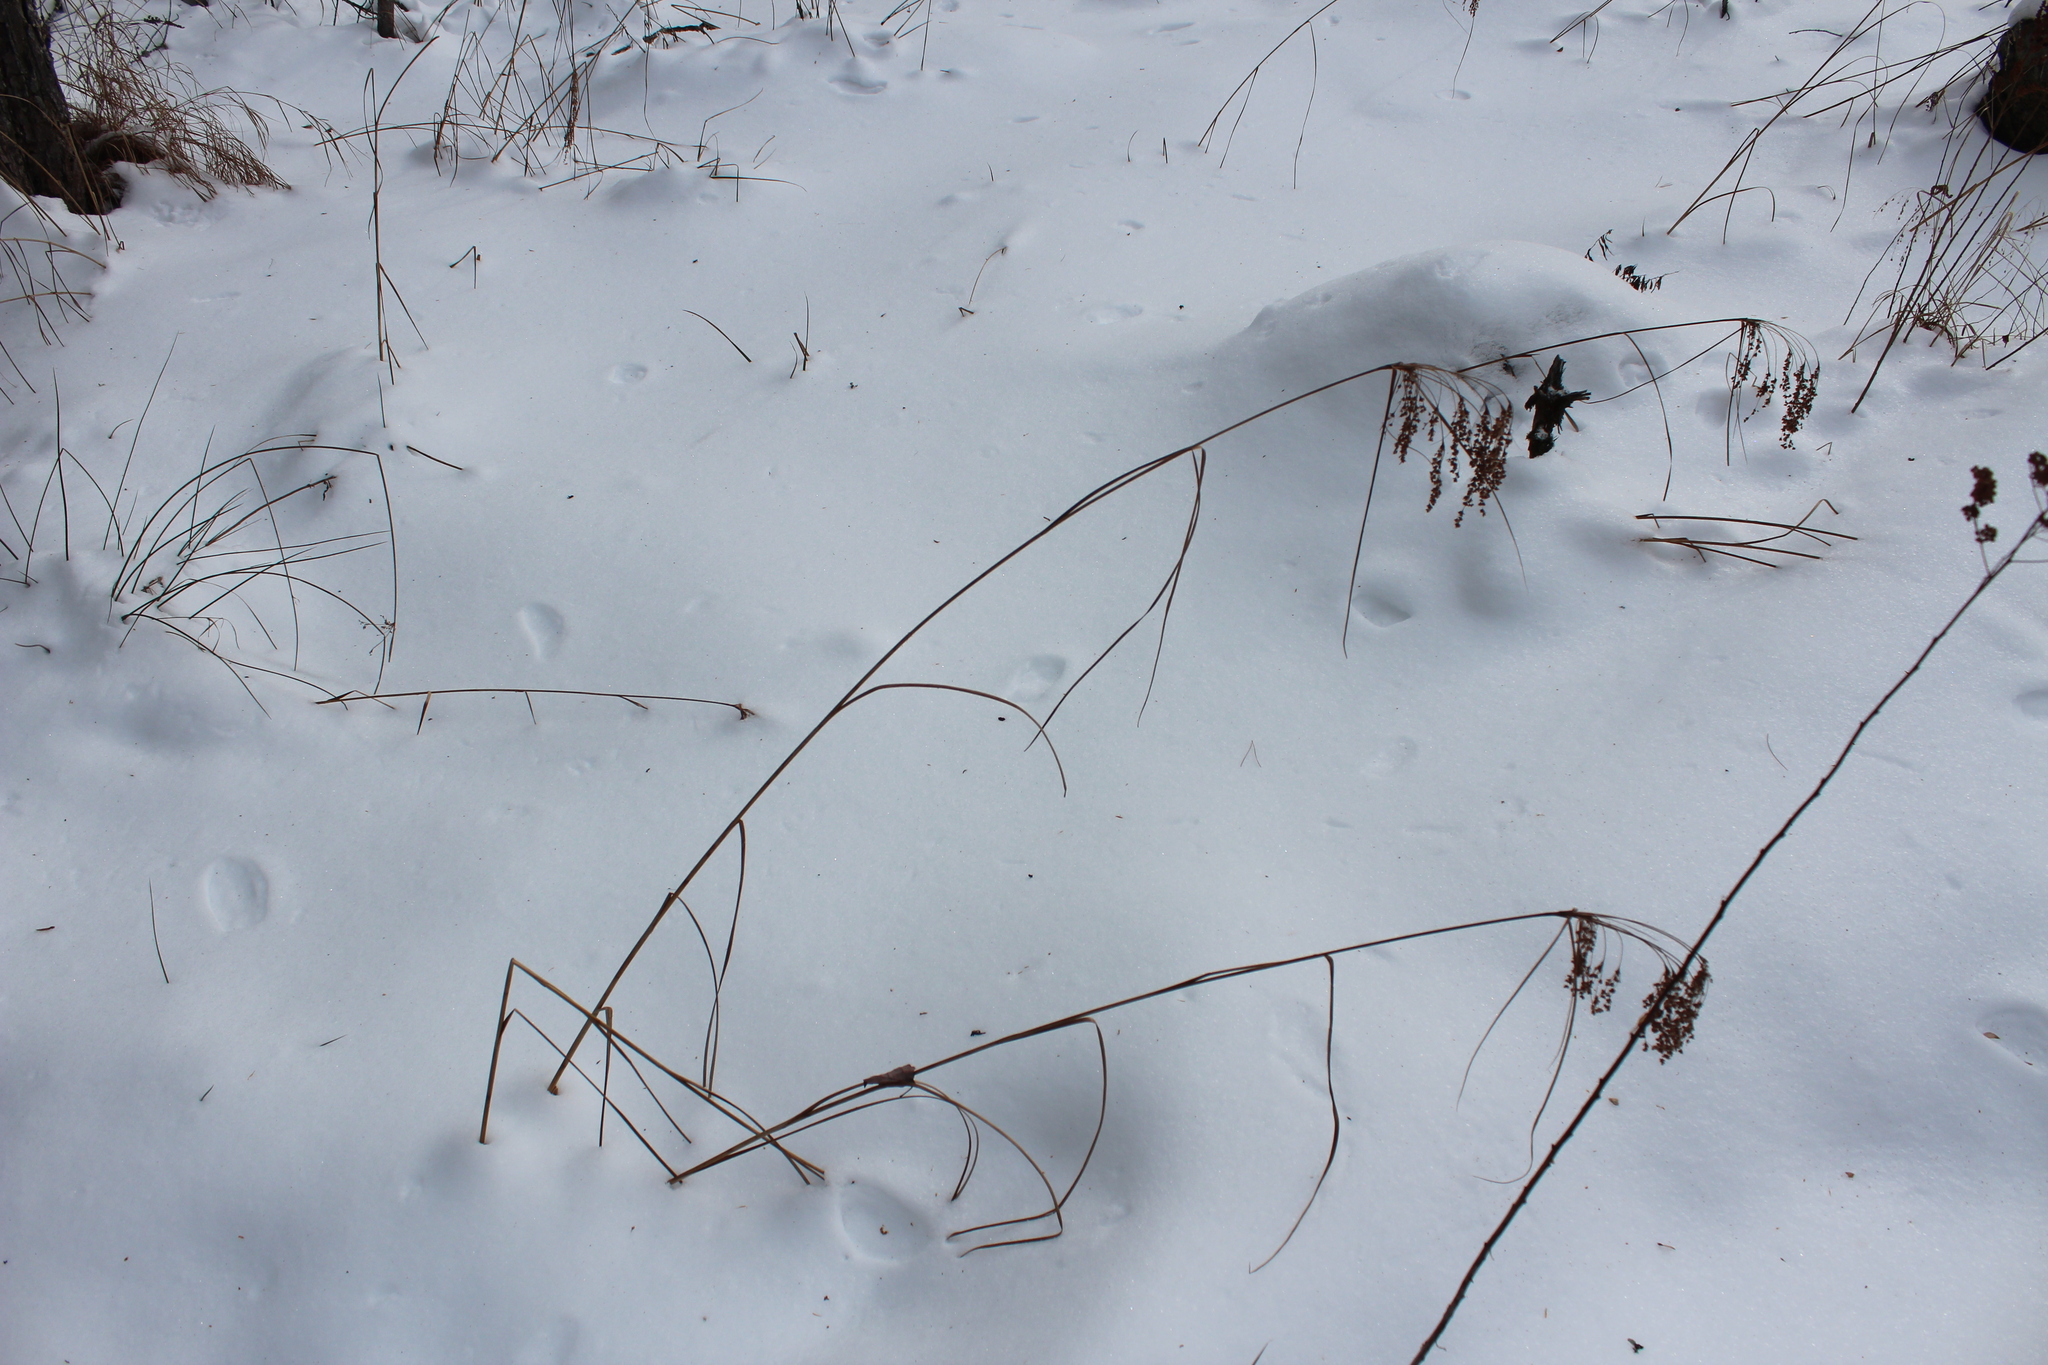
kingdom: Plantae
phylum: Tracheophyta
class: Liliopsida
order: Poales
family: Cyperaceae
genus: Scirpus
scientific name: Scirpus cyperinus
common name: Black-sheathed bulrush
